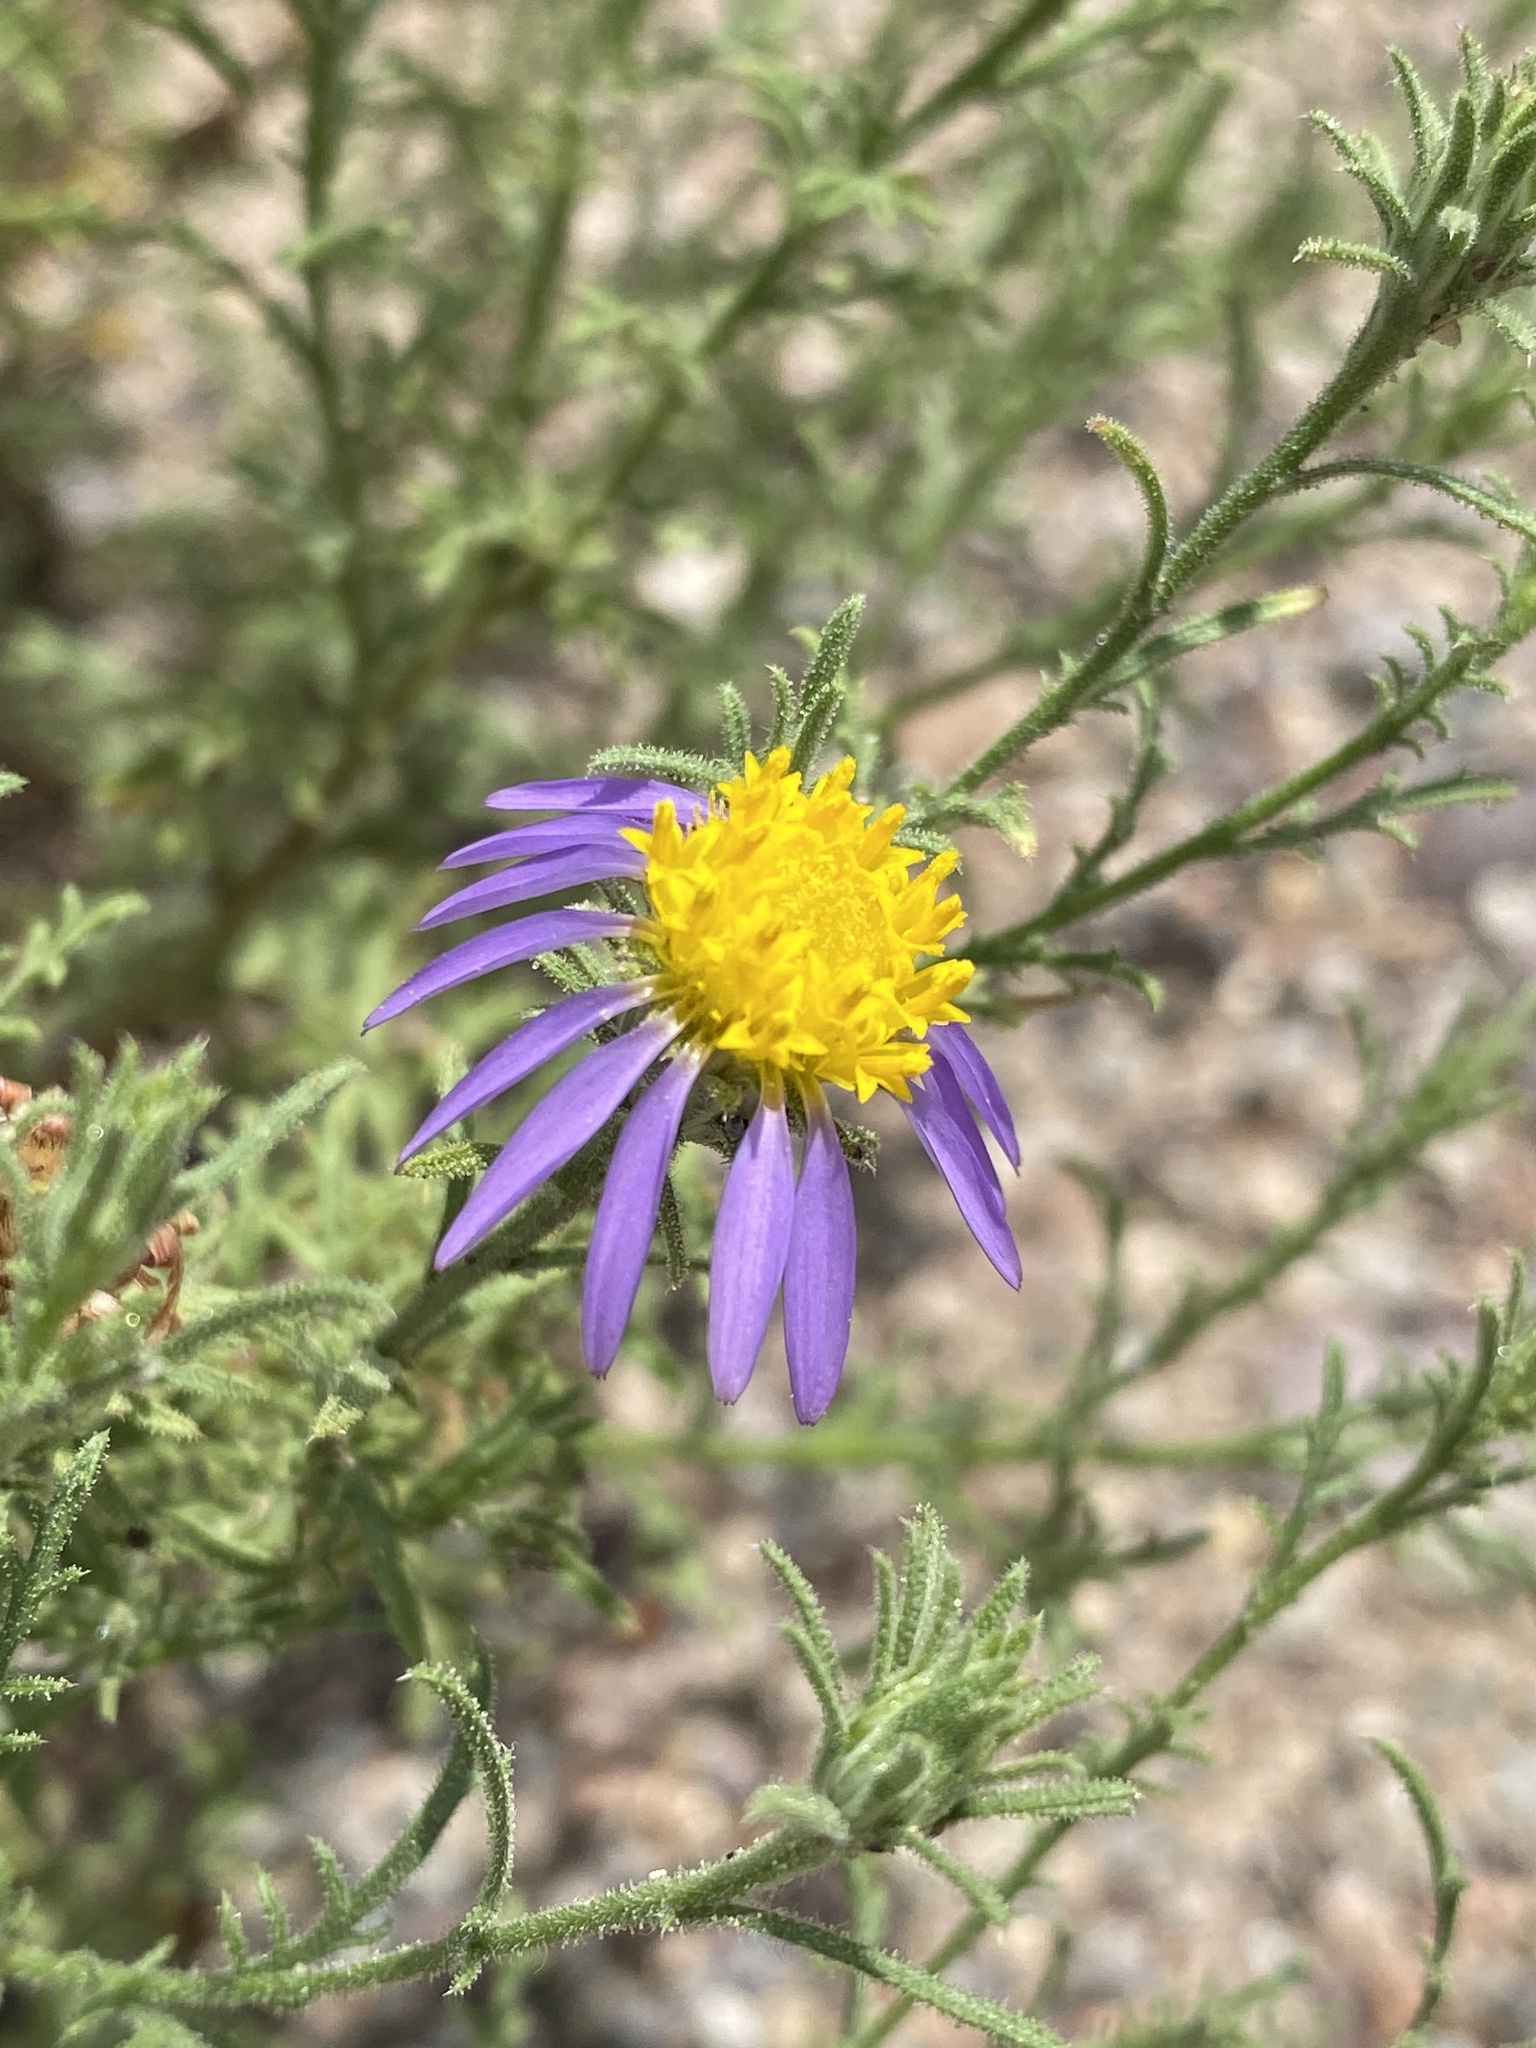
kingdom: Plantae
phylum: Tracheophyta
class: Magnoliopsida
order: Asterales
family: Asteraceae
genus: Machaeranthera
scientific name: Machaeranthera tanacetifolia
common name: Tansy-aster
